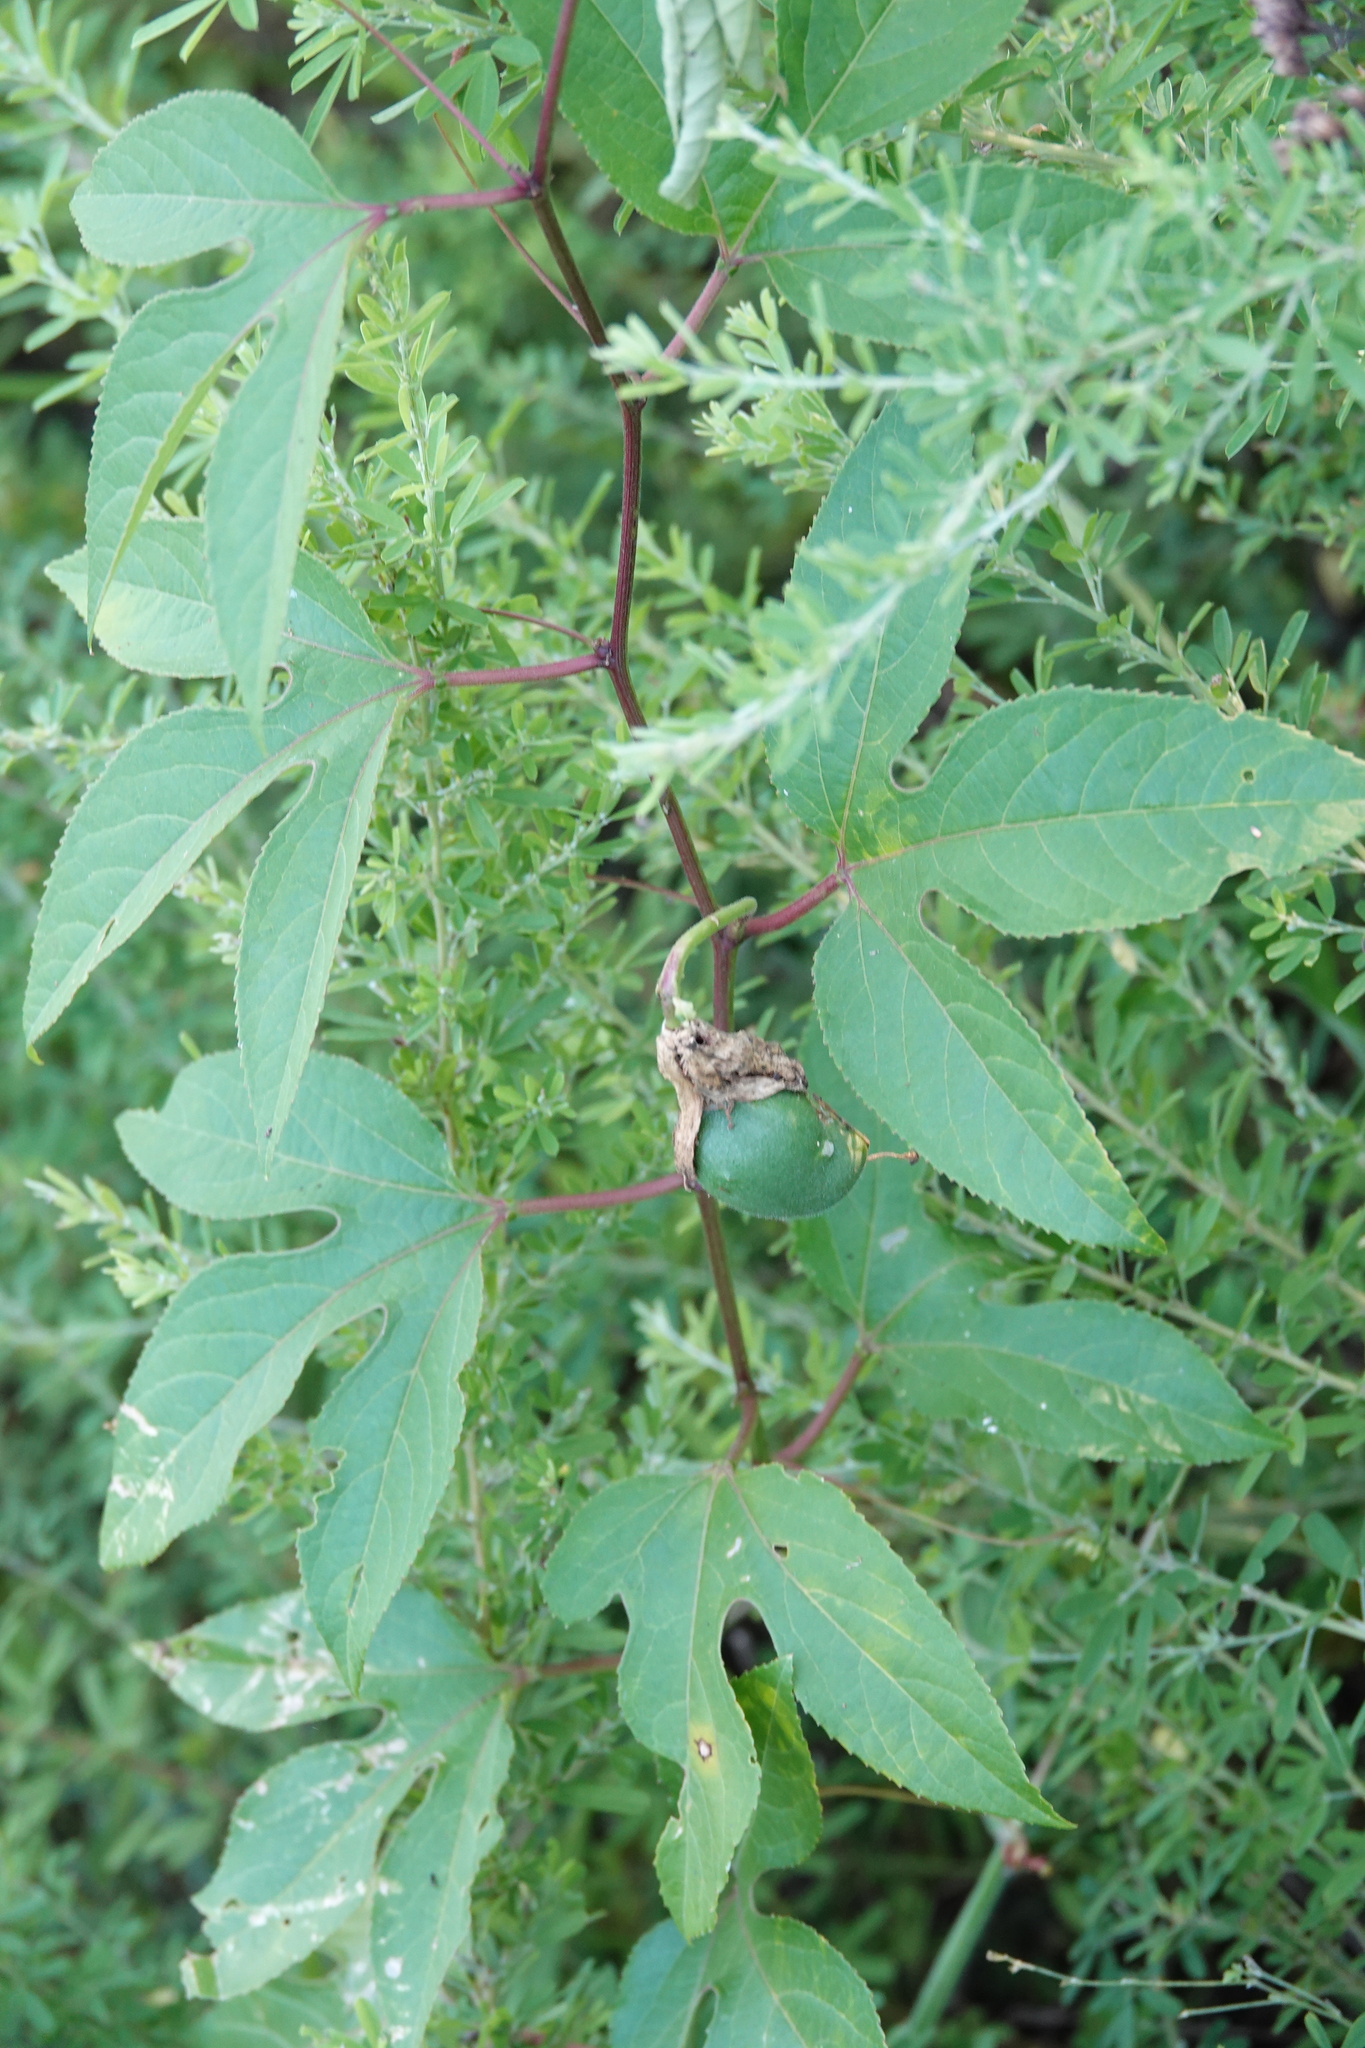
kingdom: Plantae
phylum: Tracheophyta
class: Magnoliopsida
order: Malpighiales
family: Passifloraceae
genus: Passiflora
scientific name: Passiflora incarnata
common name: Apricot-vine
